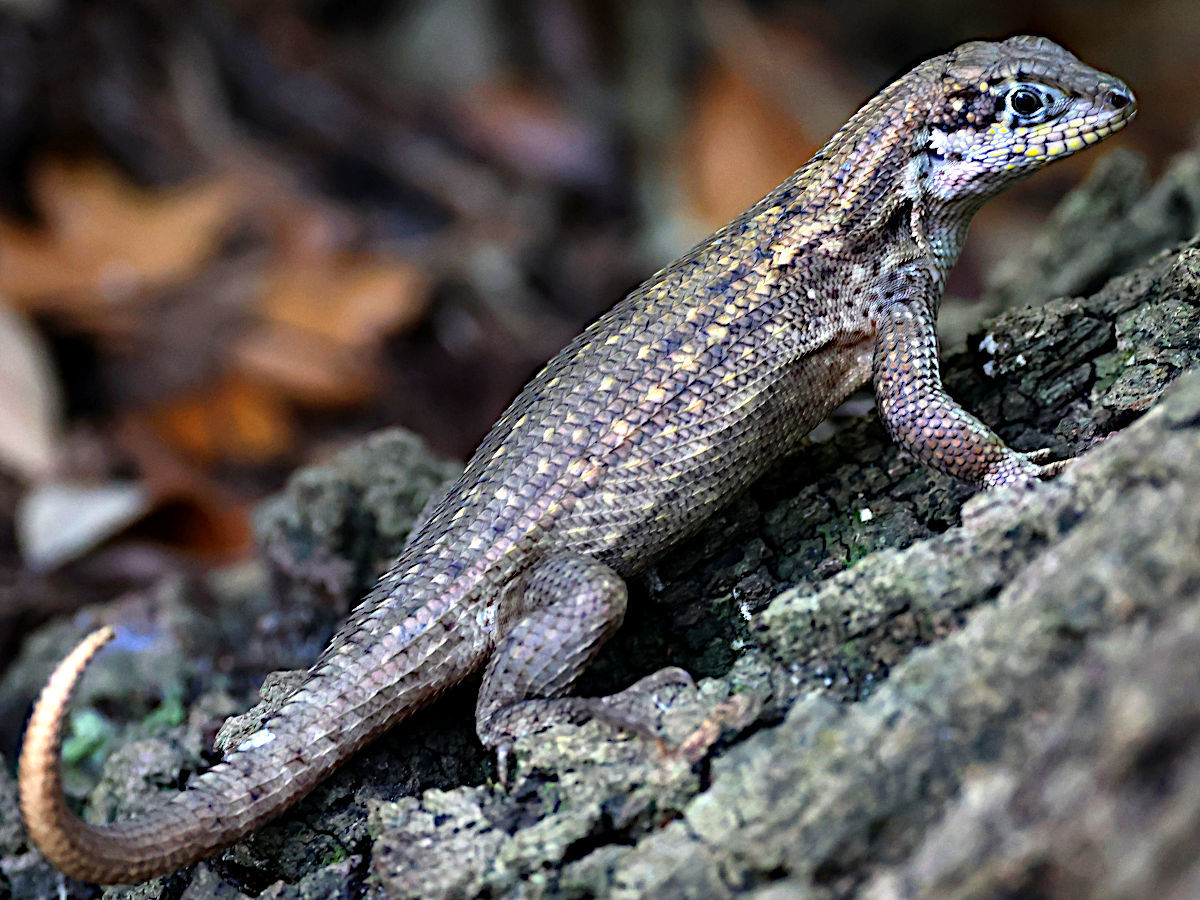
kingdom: Animalia
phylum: Chordata
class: Squamata
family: Leiocephalidae
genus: Leiocephalus
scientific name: Leiocephalus carinatus
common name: Northern curly-tailed lizard
